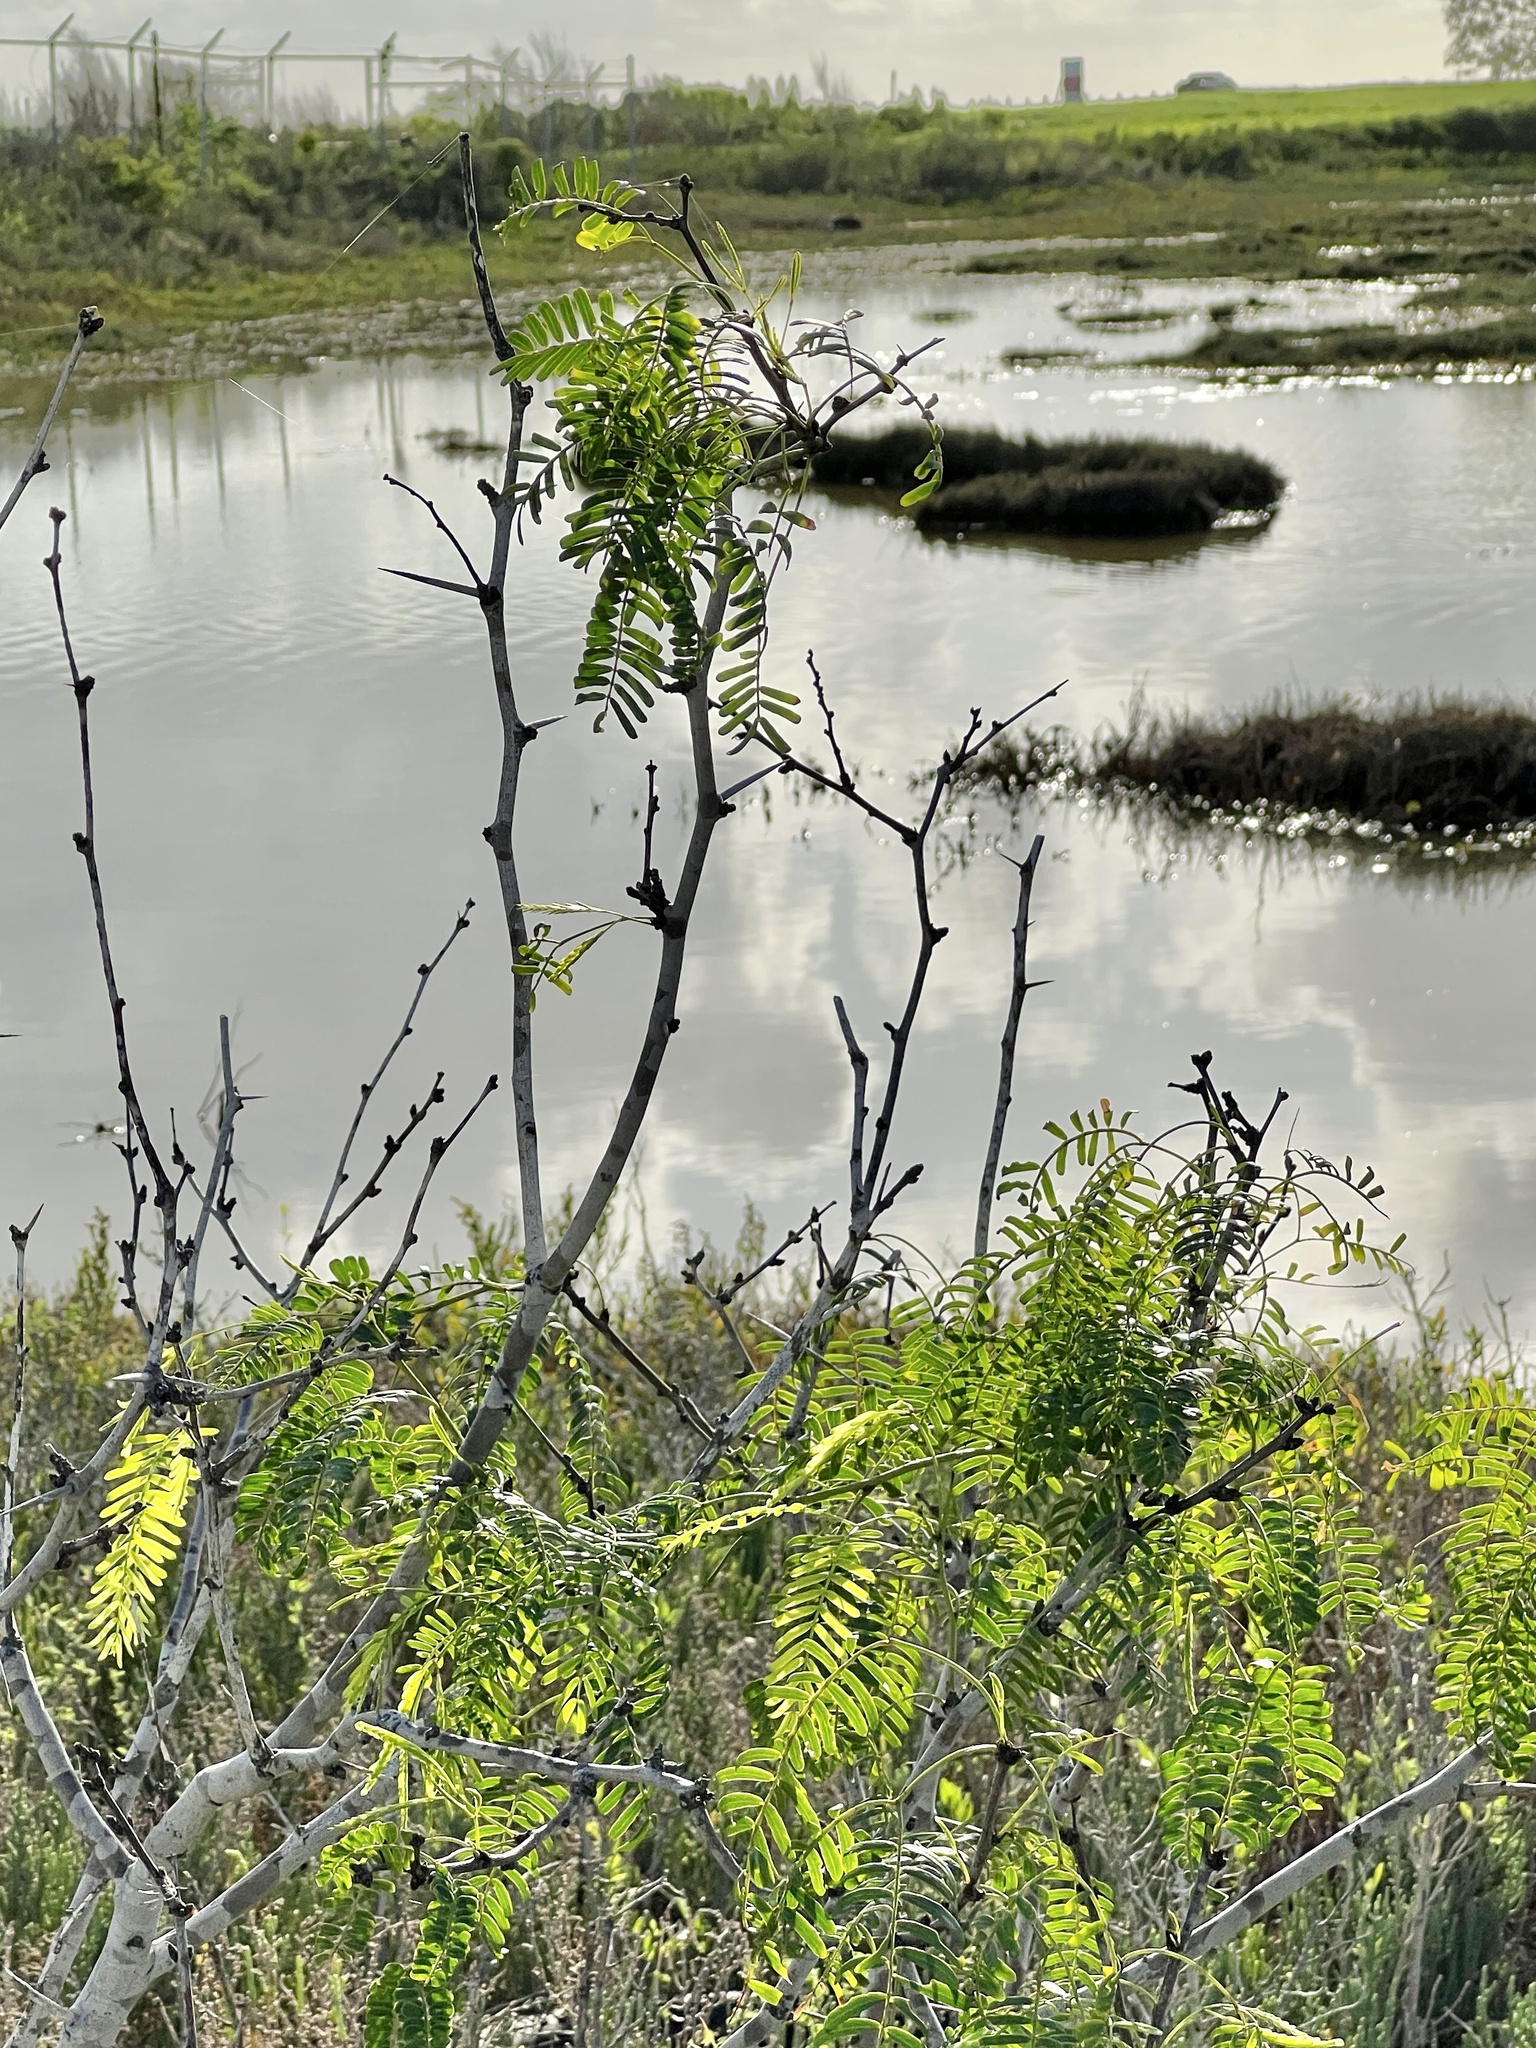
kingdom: Plantae
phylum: Tracheophyta
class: Magnoliopsida
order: Fabales
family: Fabaceae
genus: Prosopis
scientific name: Prosopis glandulosa
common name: Honey mesquite
